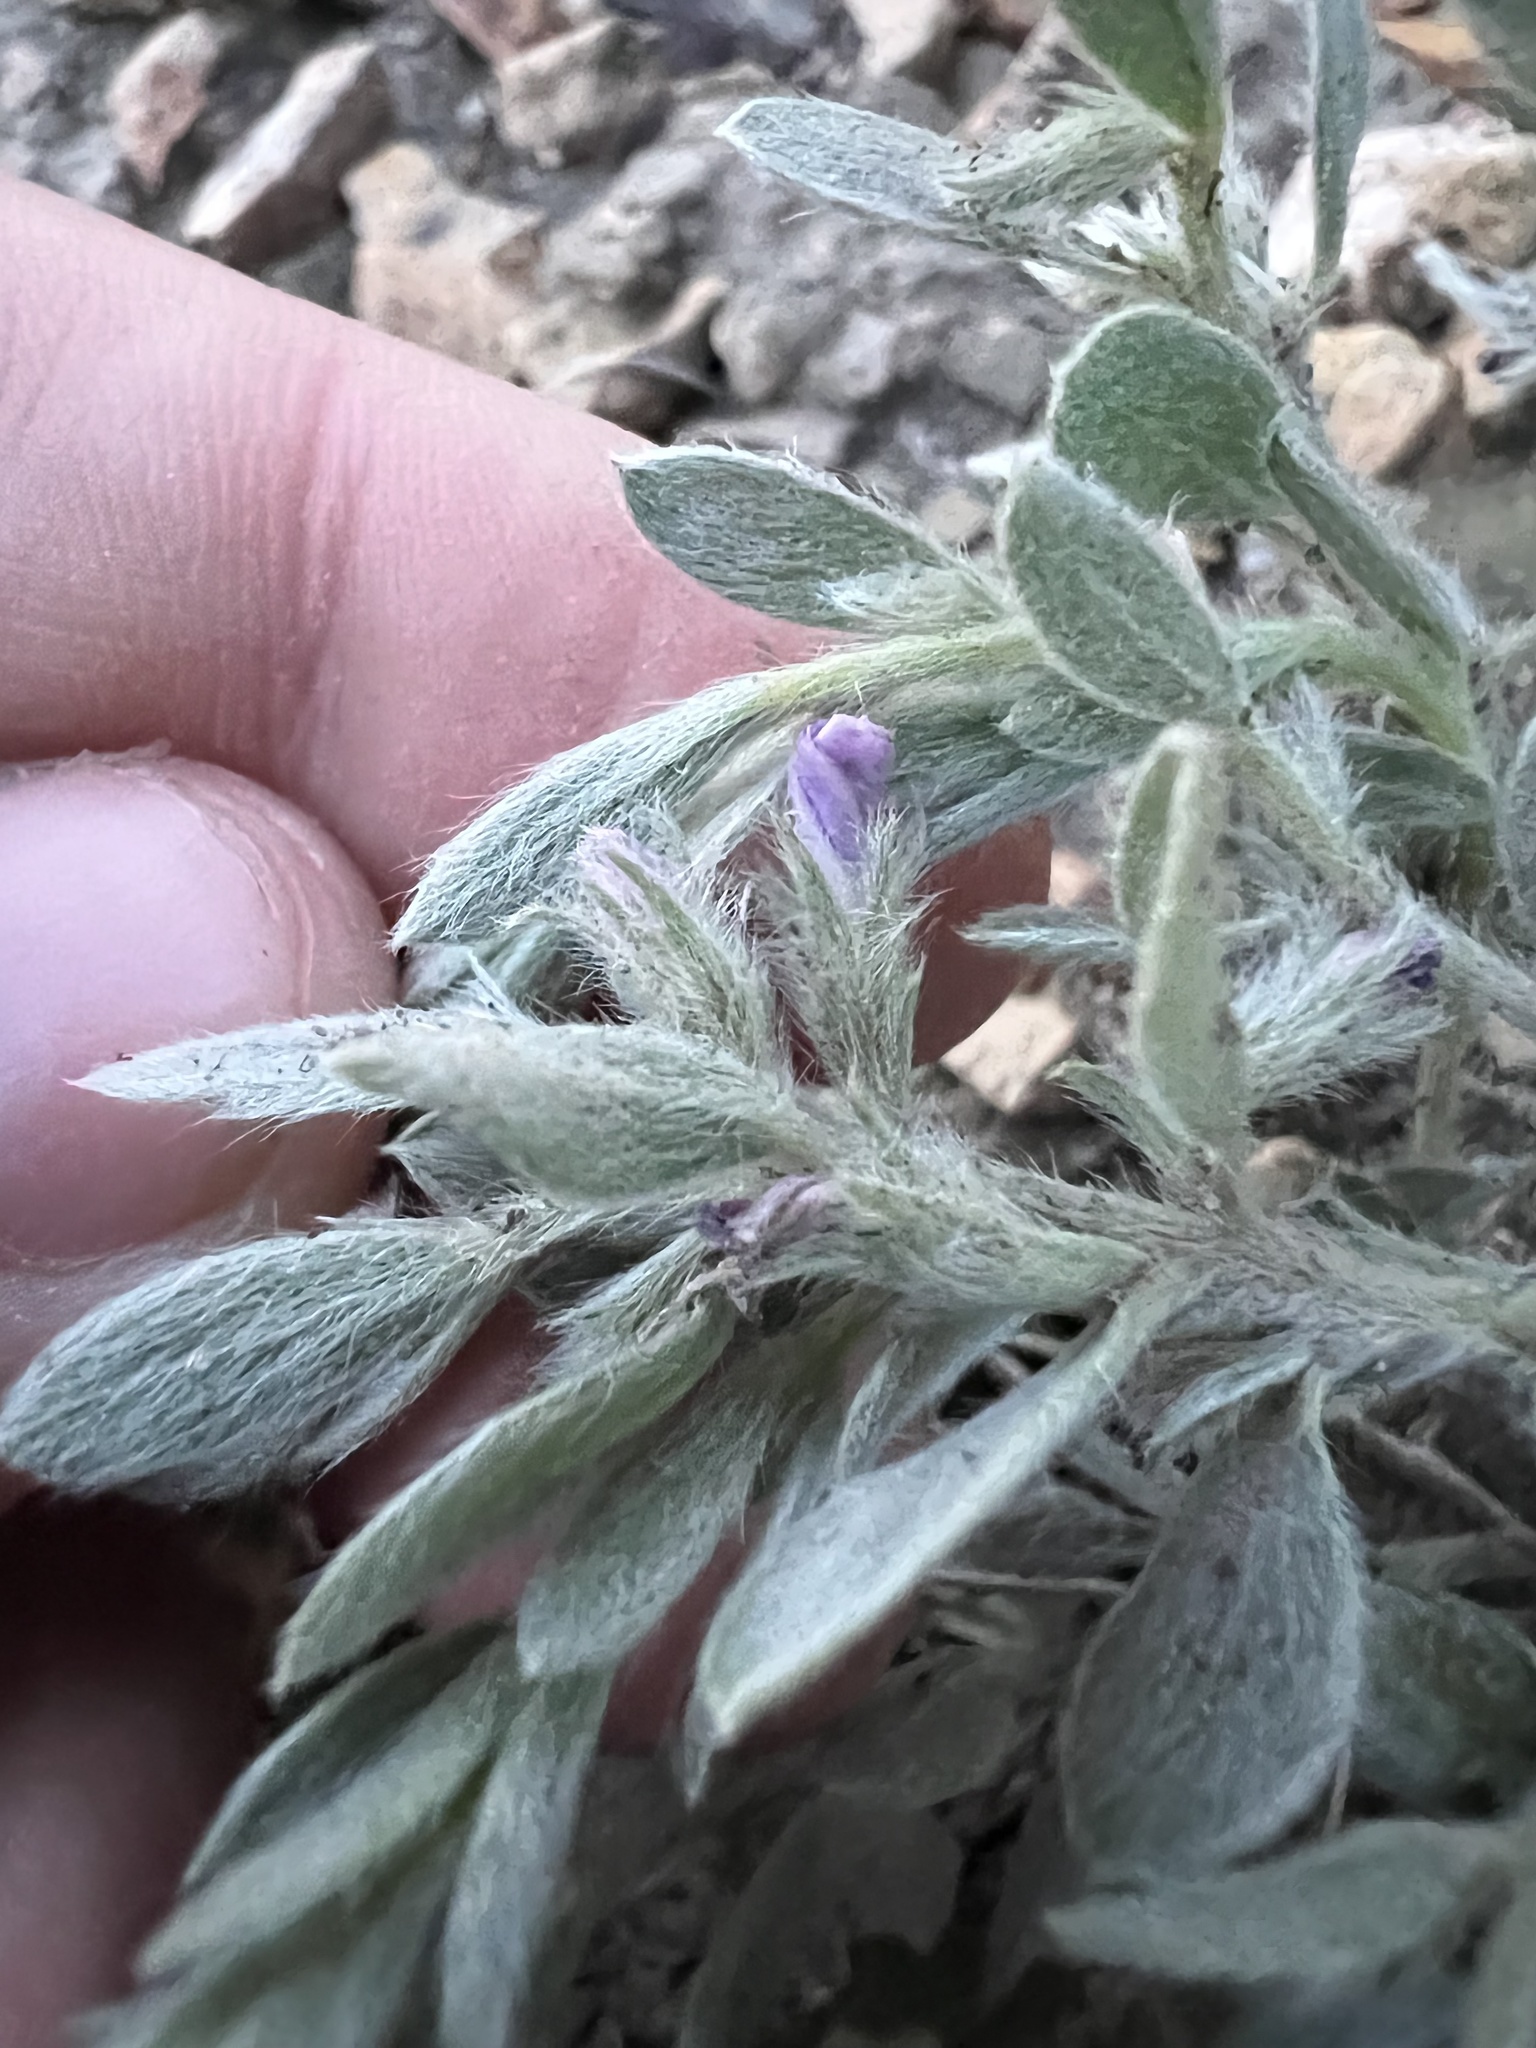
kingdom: Plantae
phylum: Tracheophyta
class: Magnoliopsida
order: Solanales
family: Convolvulaceae
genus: Evolvulus
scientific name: Evolvulus nuttallianus
